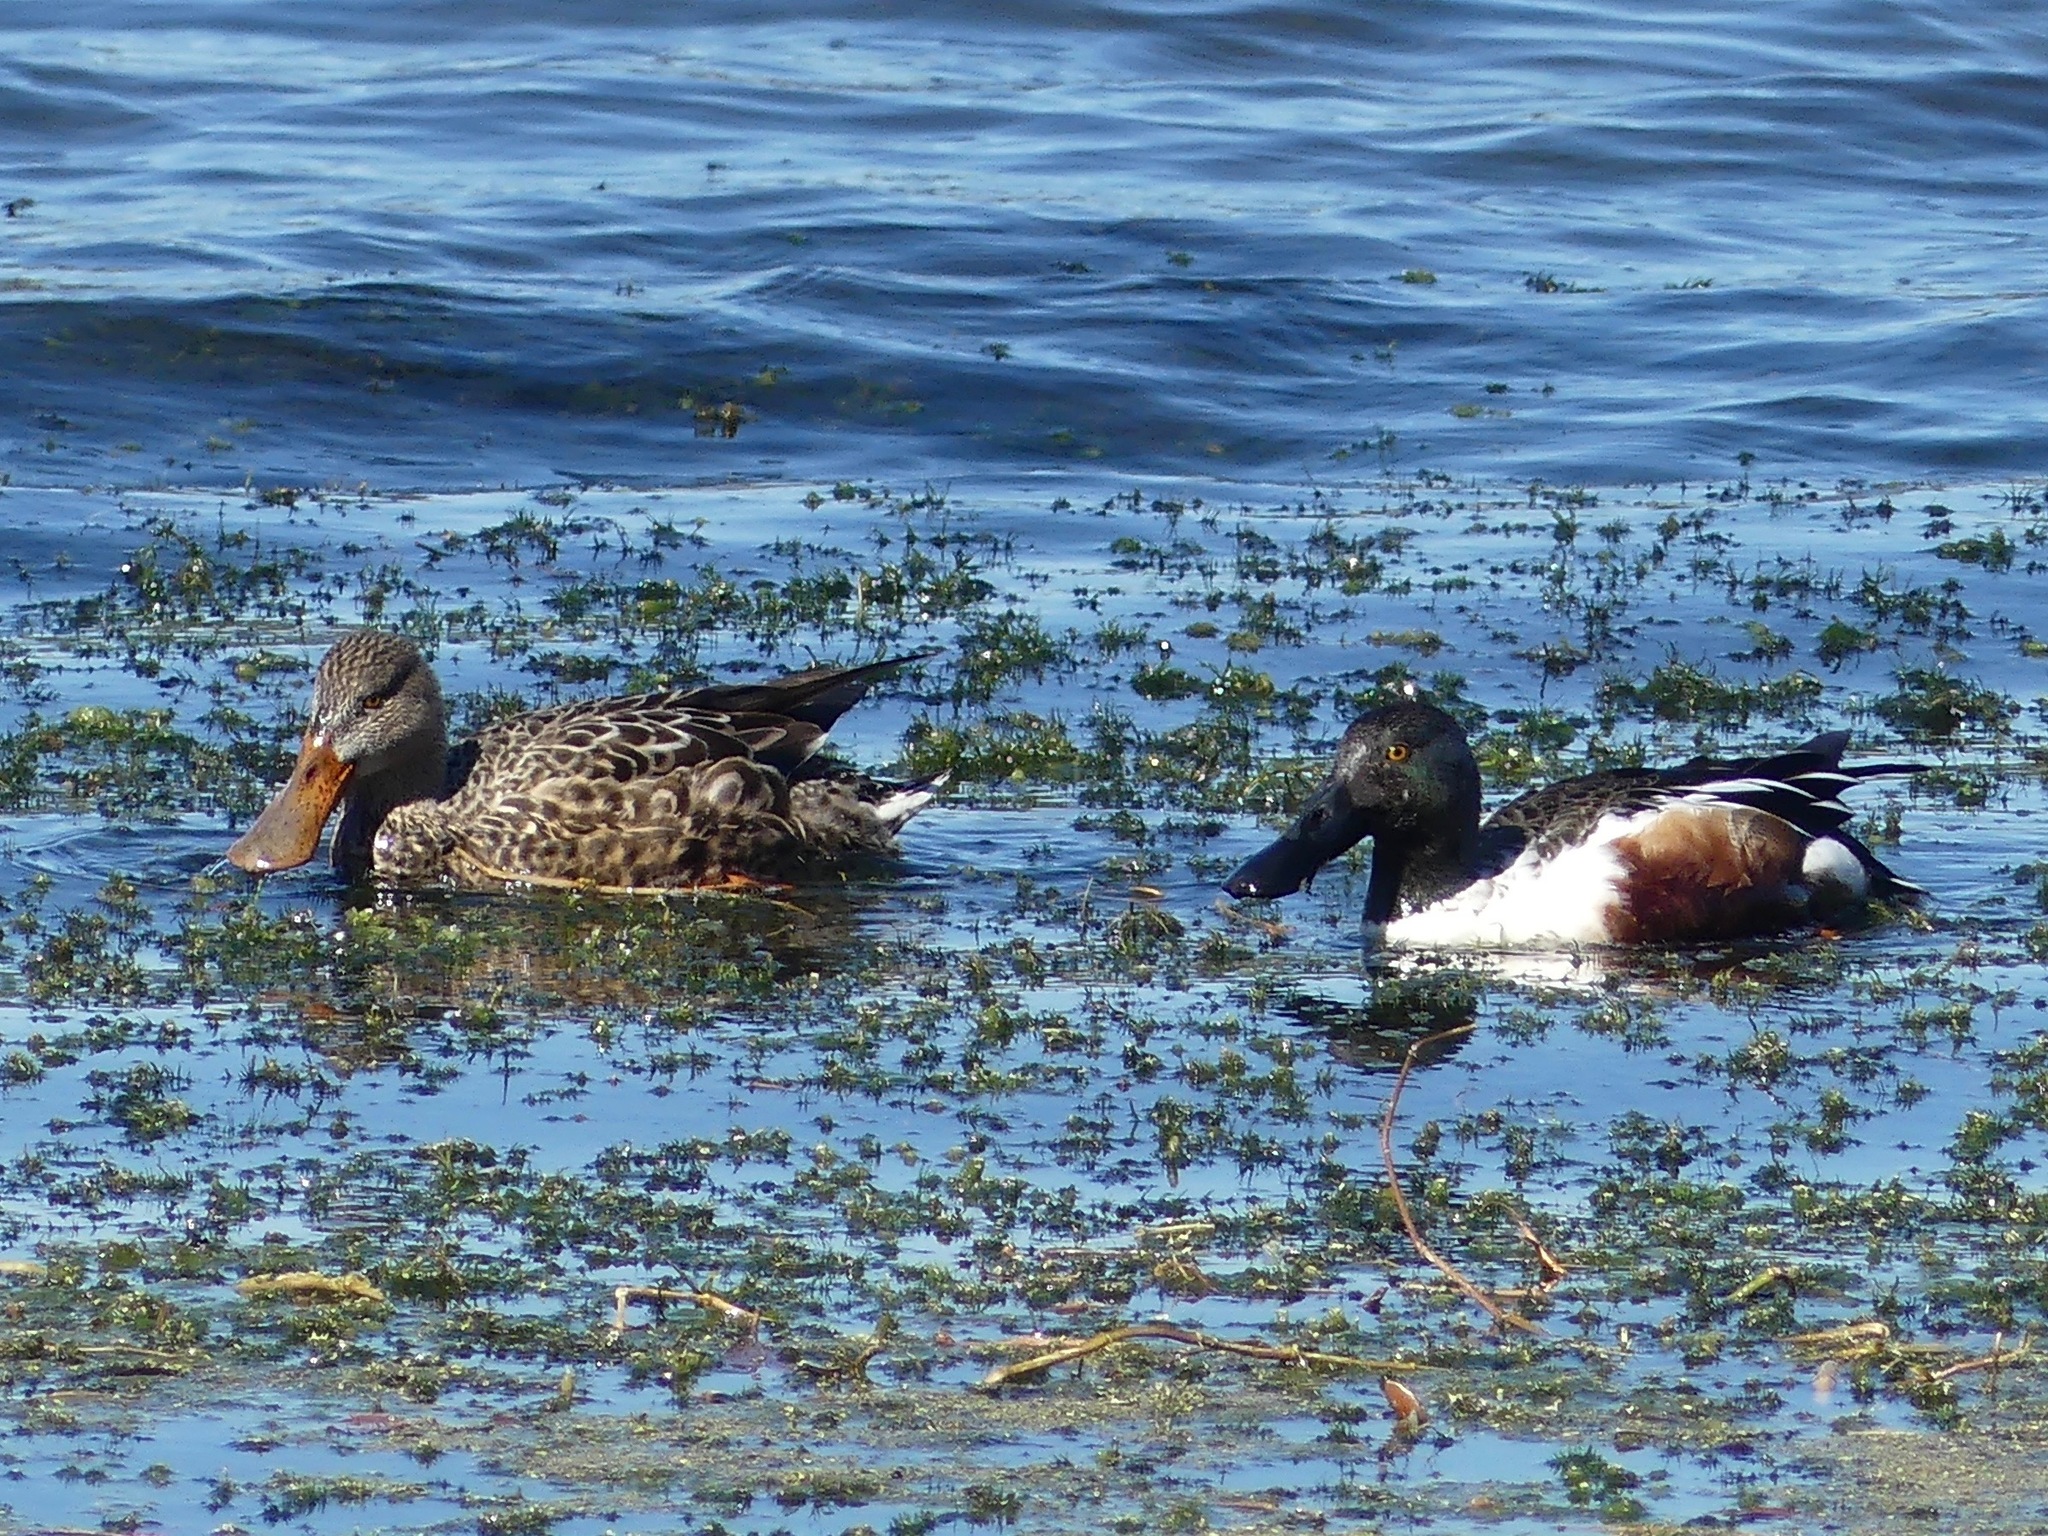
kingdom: Animalia
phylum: Chordata
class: Aves
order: Anseriformes
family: Anatidae
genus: Spatula
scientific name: Spatula clypeata
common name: Northern shoveler
